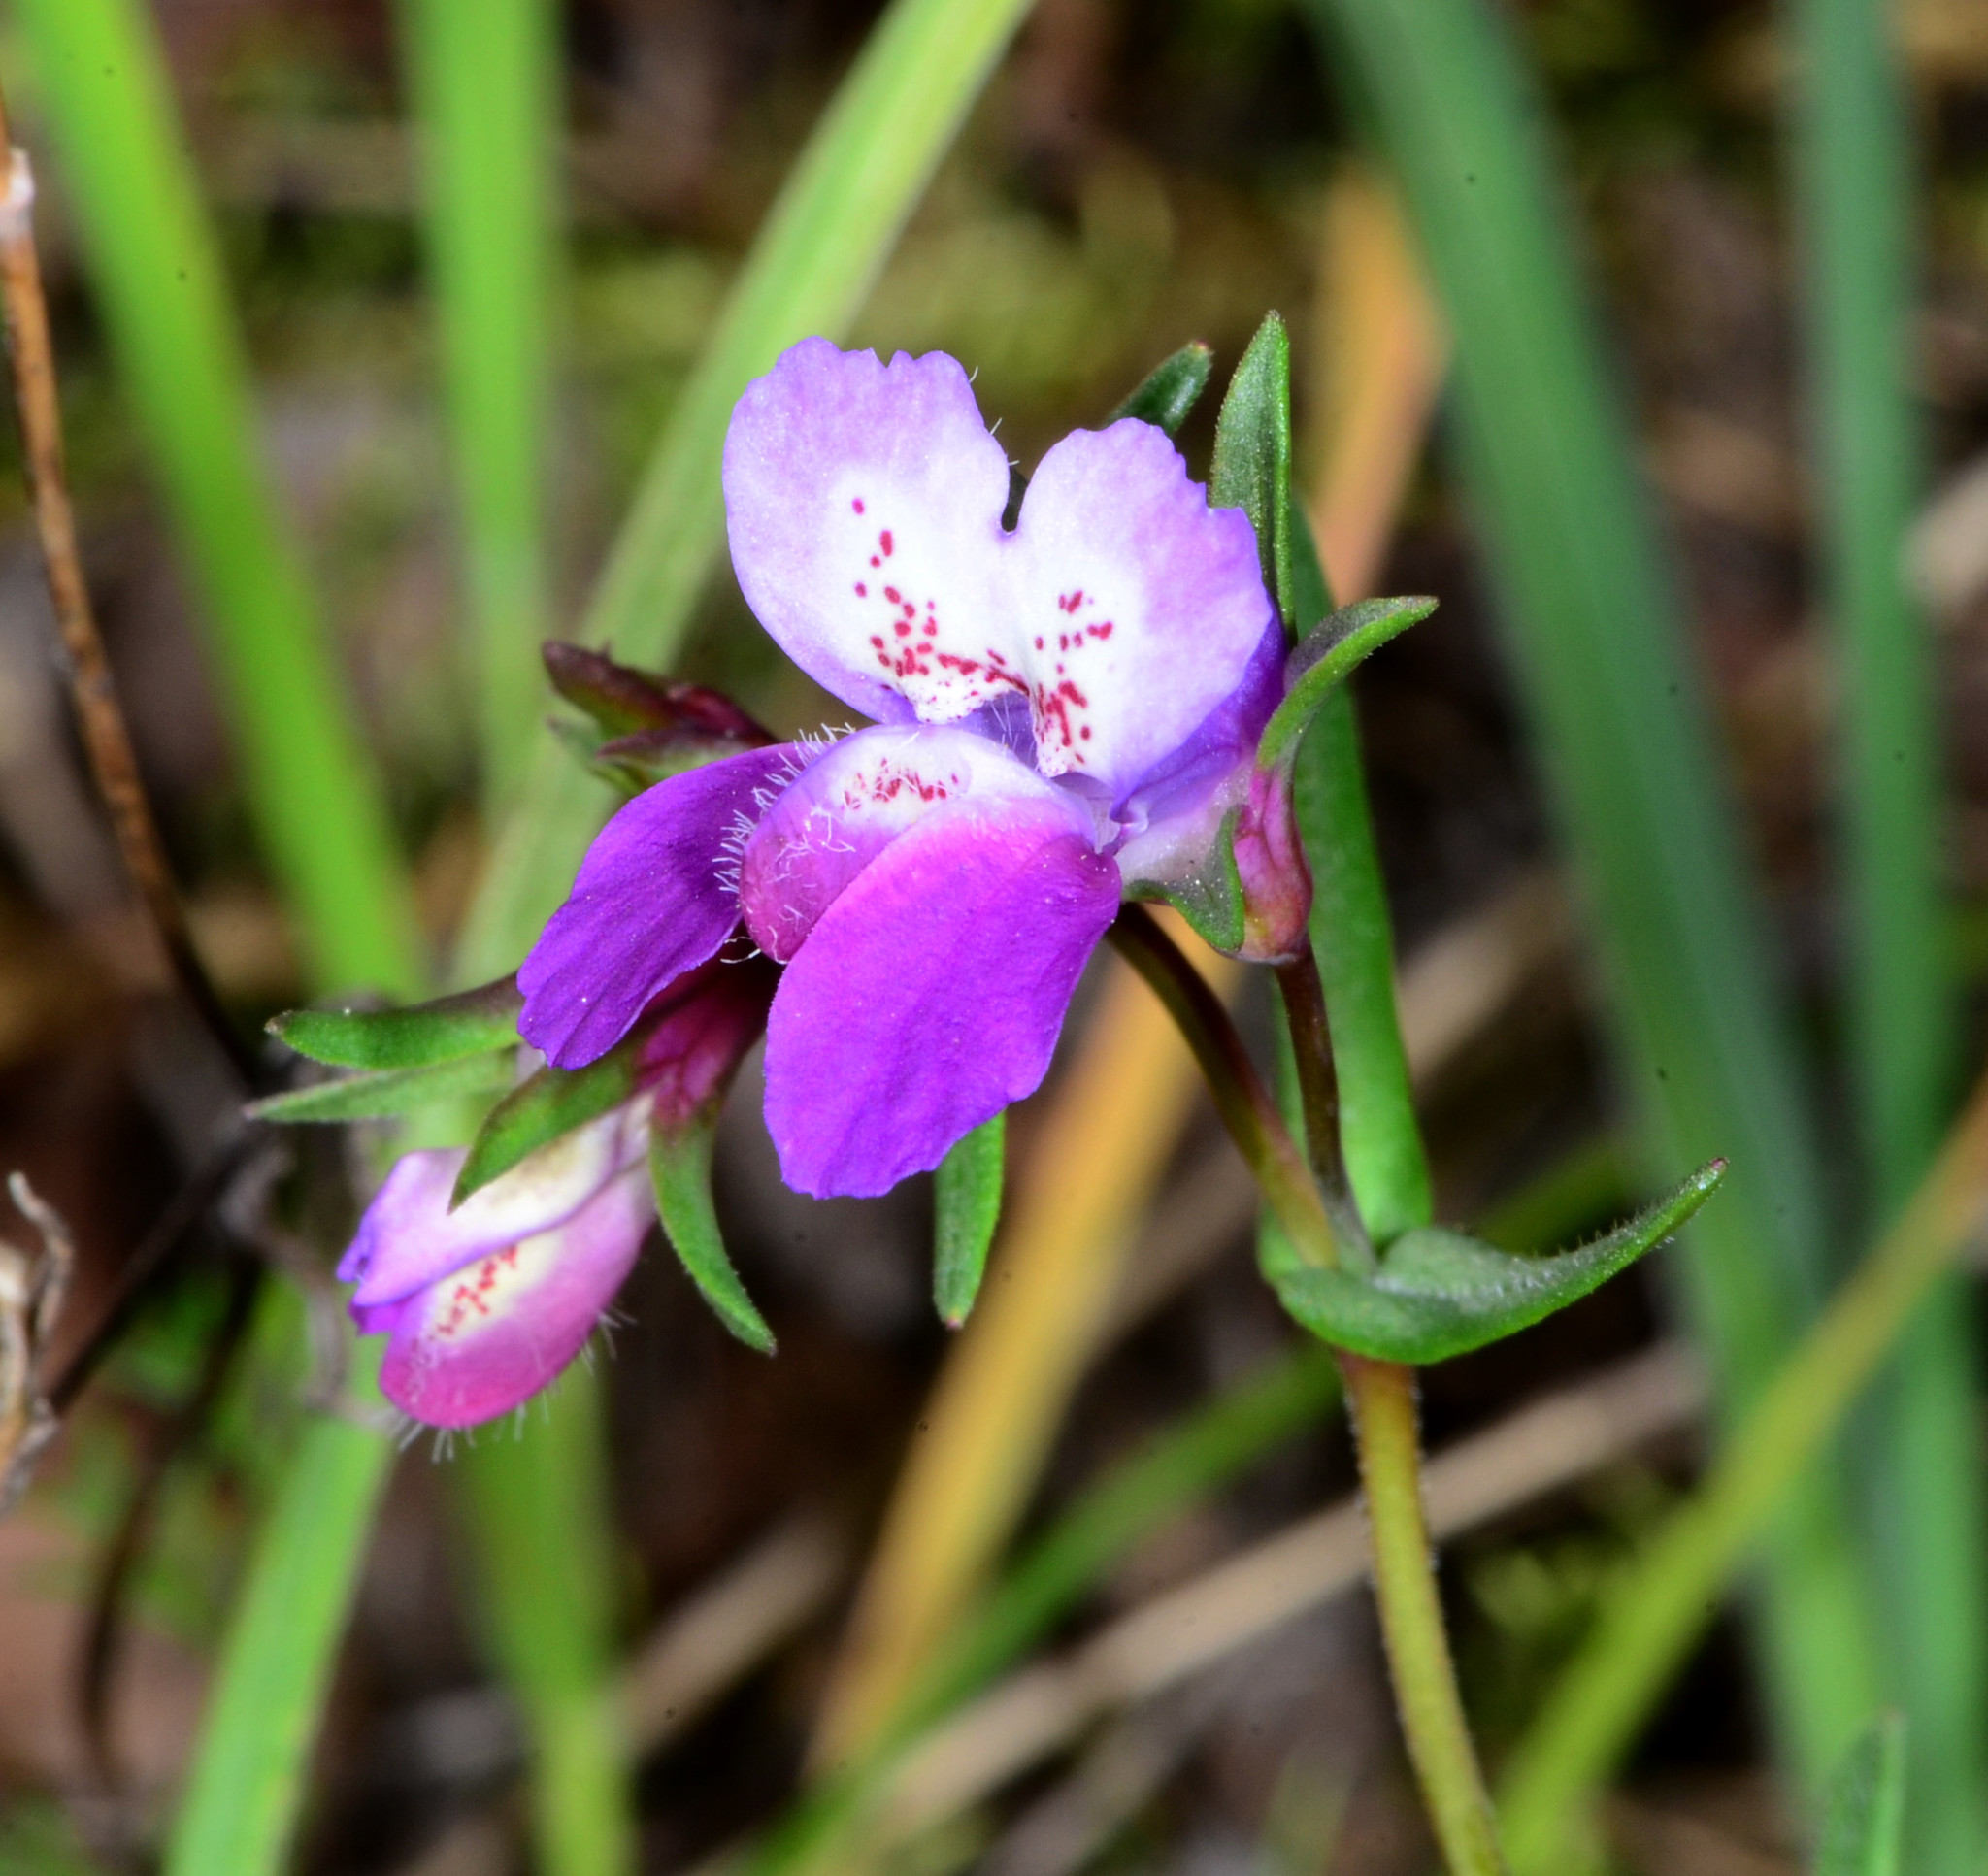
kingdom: Plantae
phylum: Tracheophyta
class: Magnoliopsida
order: Lamiales
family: Plantaginaceae
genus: Collinsia
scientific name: Collinsia sparsiflora
